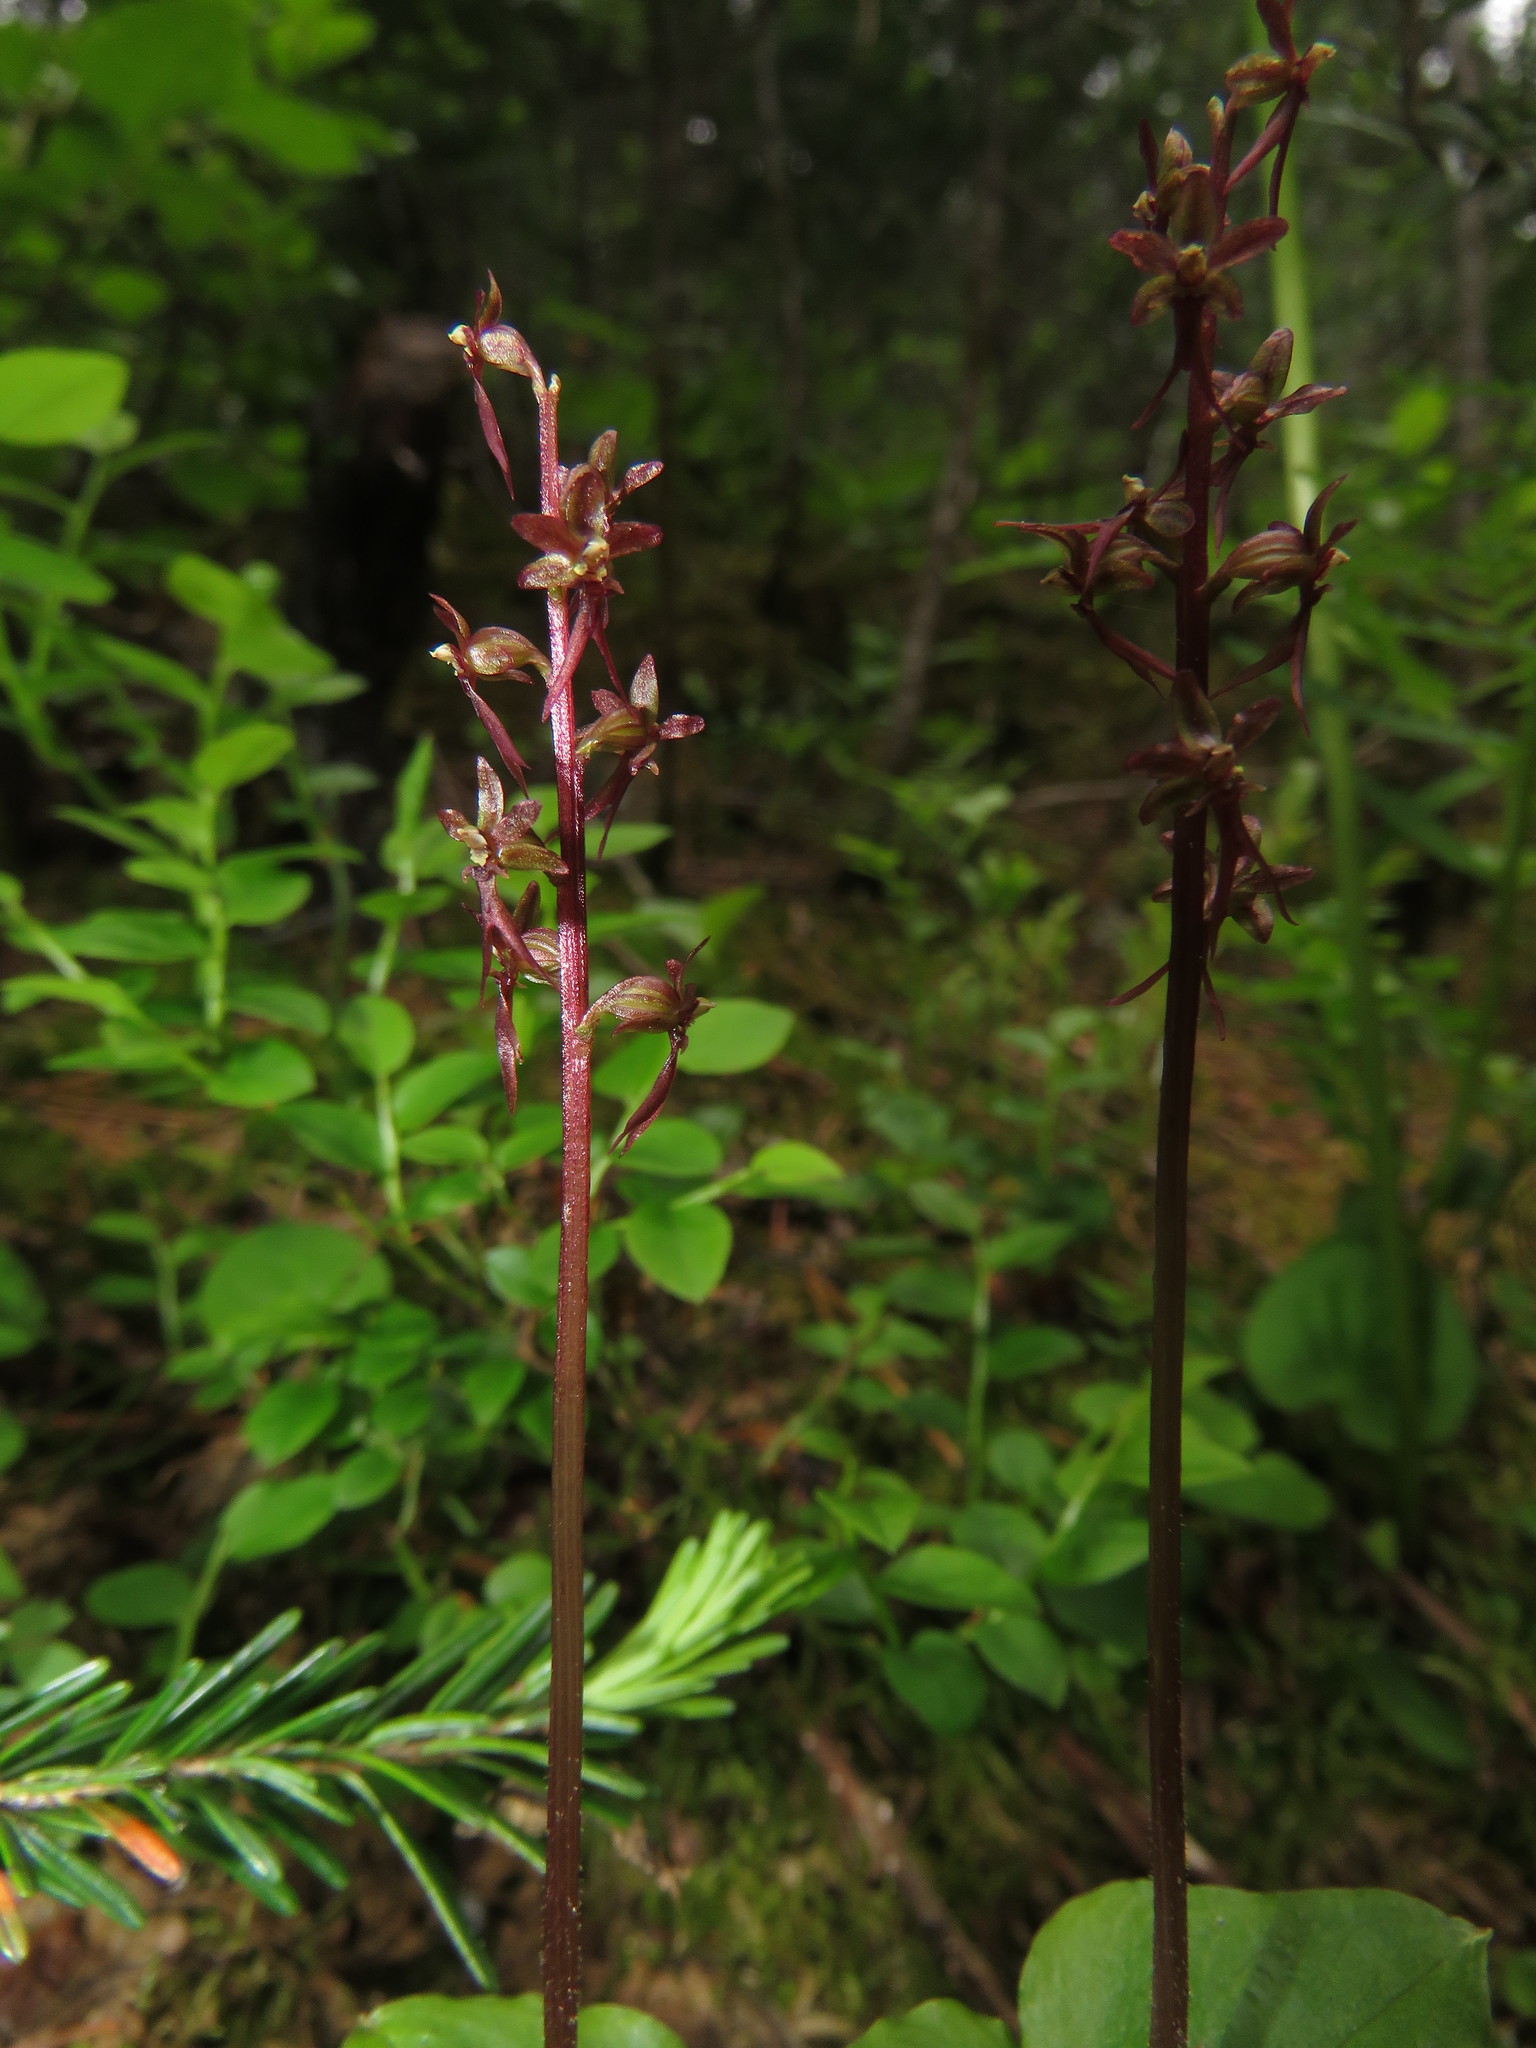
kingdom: Plantae
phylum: Tracheophyta
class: Liliopsida
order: Asparagales
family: Orchidaceae
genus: Neottia
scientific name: Neottia cordata
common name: Lesser twayblade
